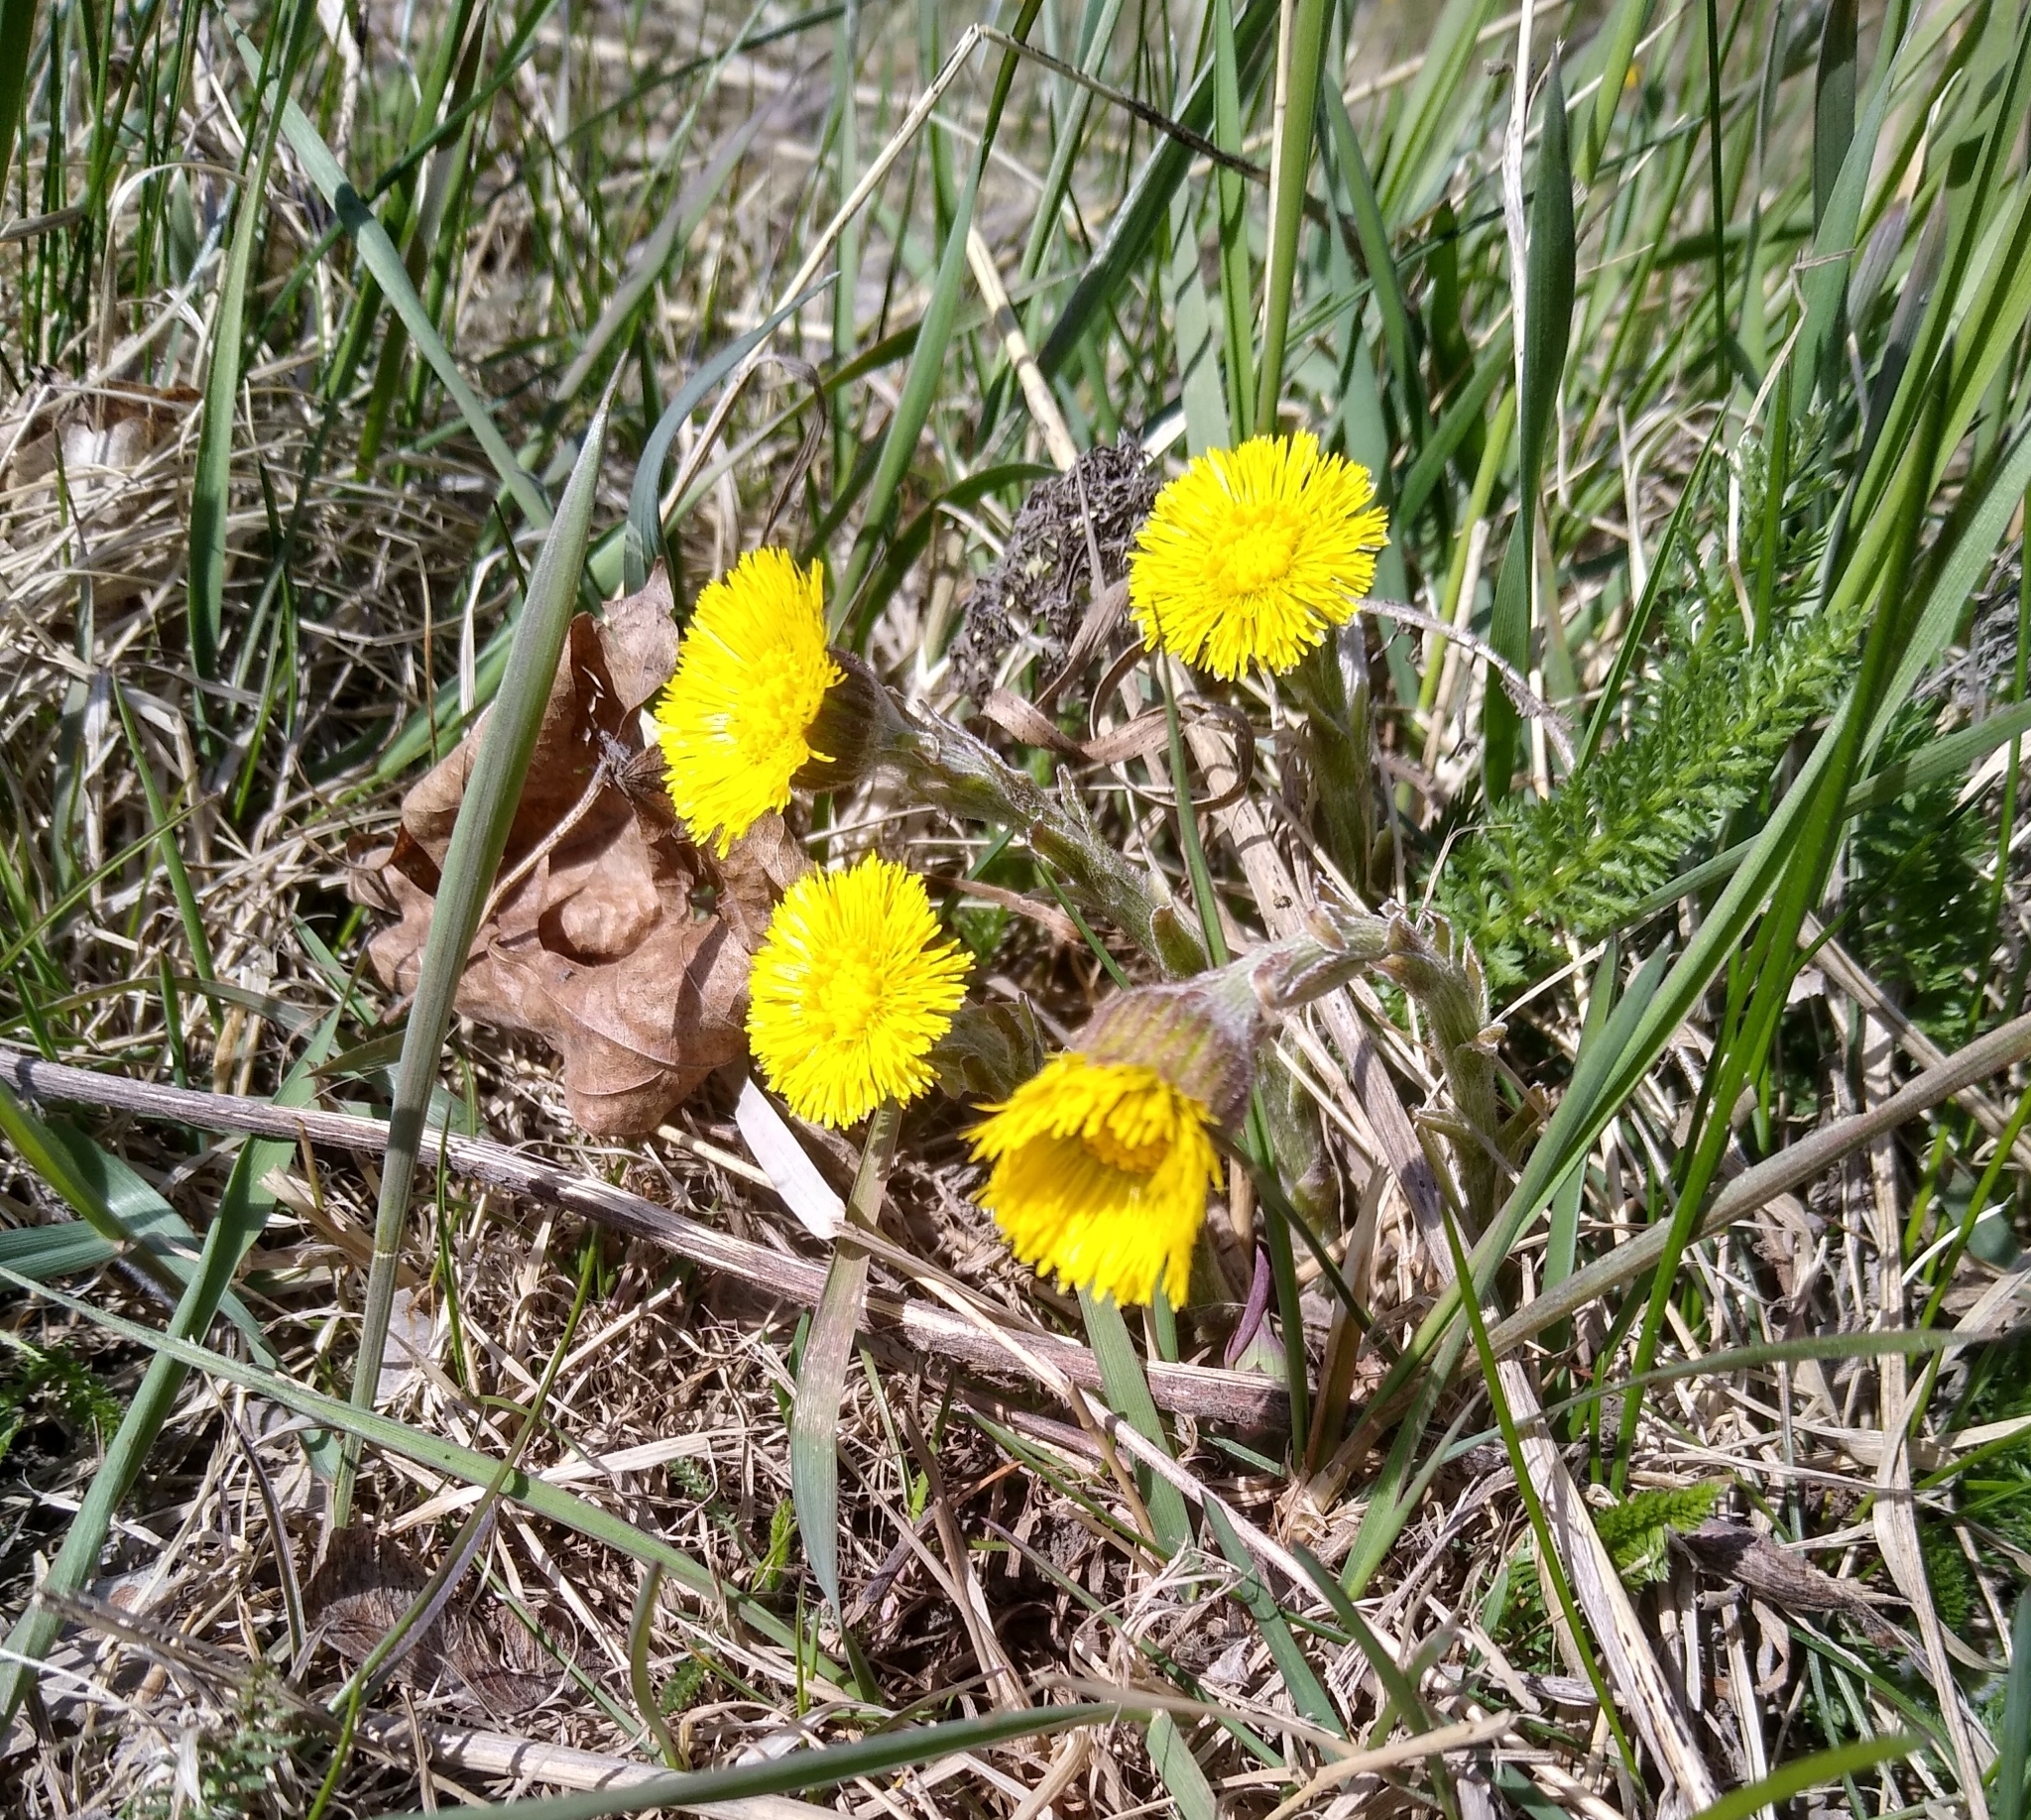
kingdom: Plantae
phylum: Tracheophyta
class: Magnoliopsida
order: Asterales
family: Asteraceae
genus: Tussilago
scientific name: Tussilago farfara
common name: Coltsfoot
